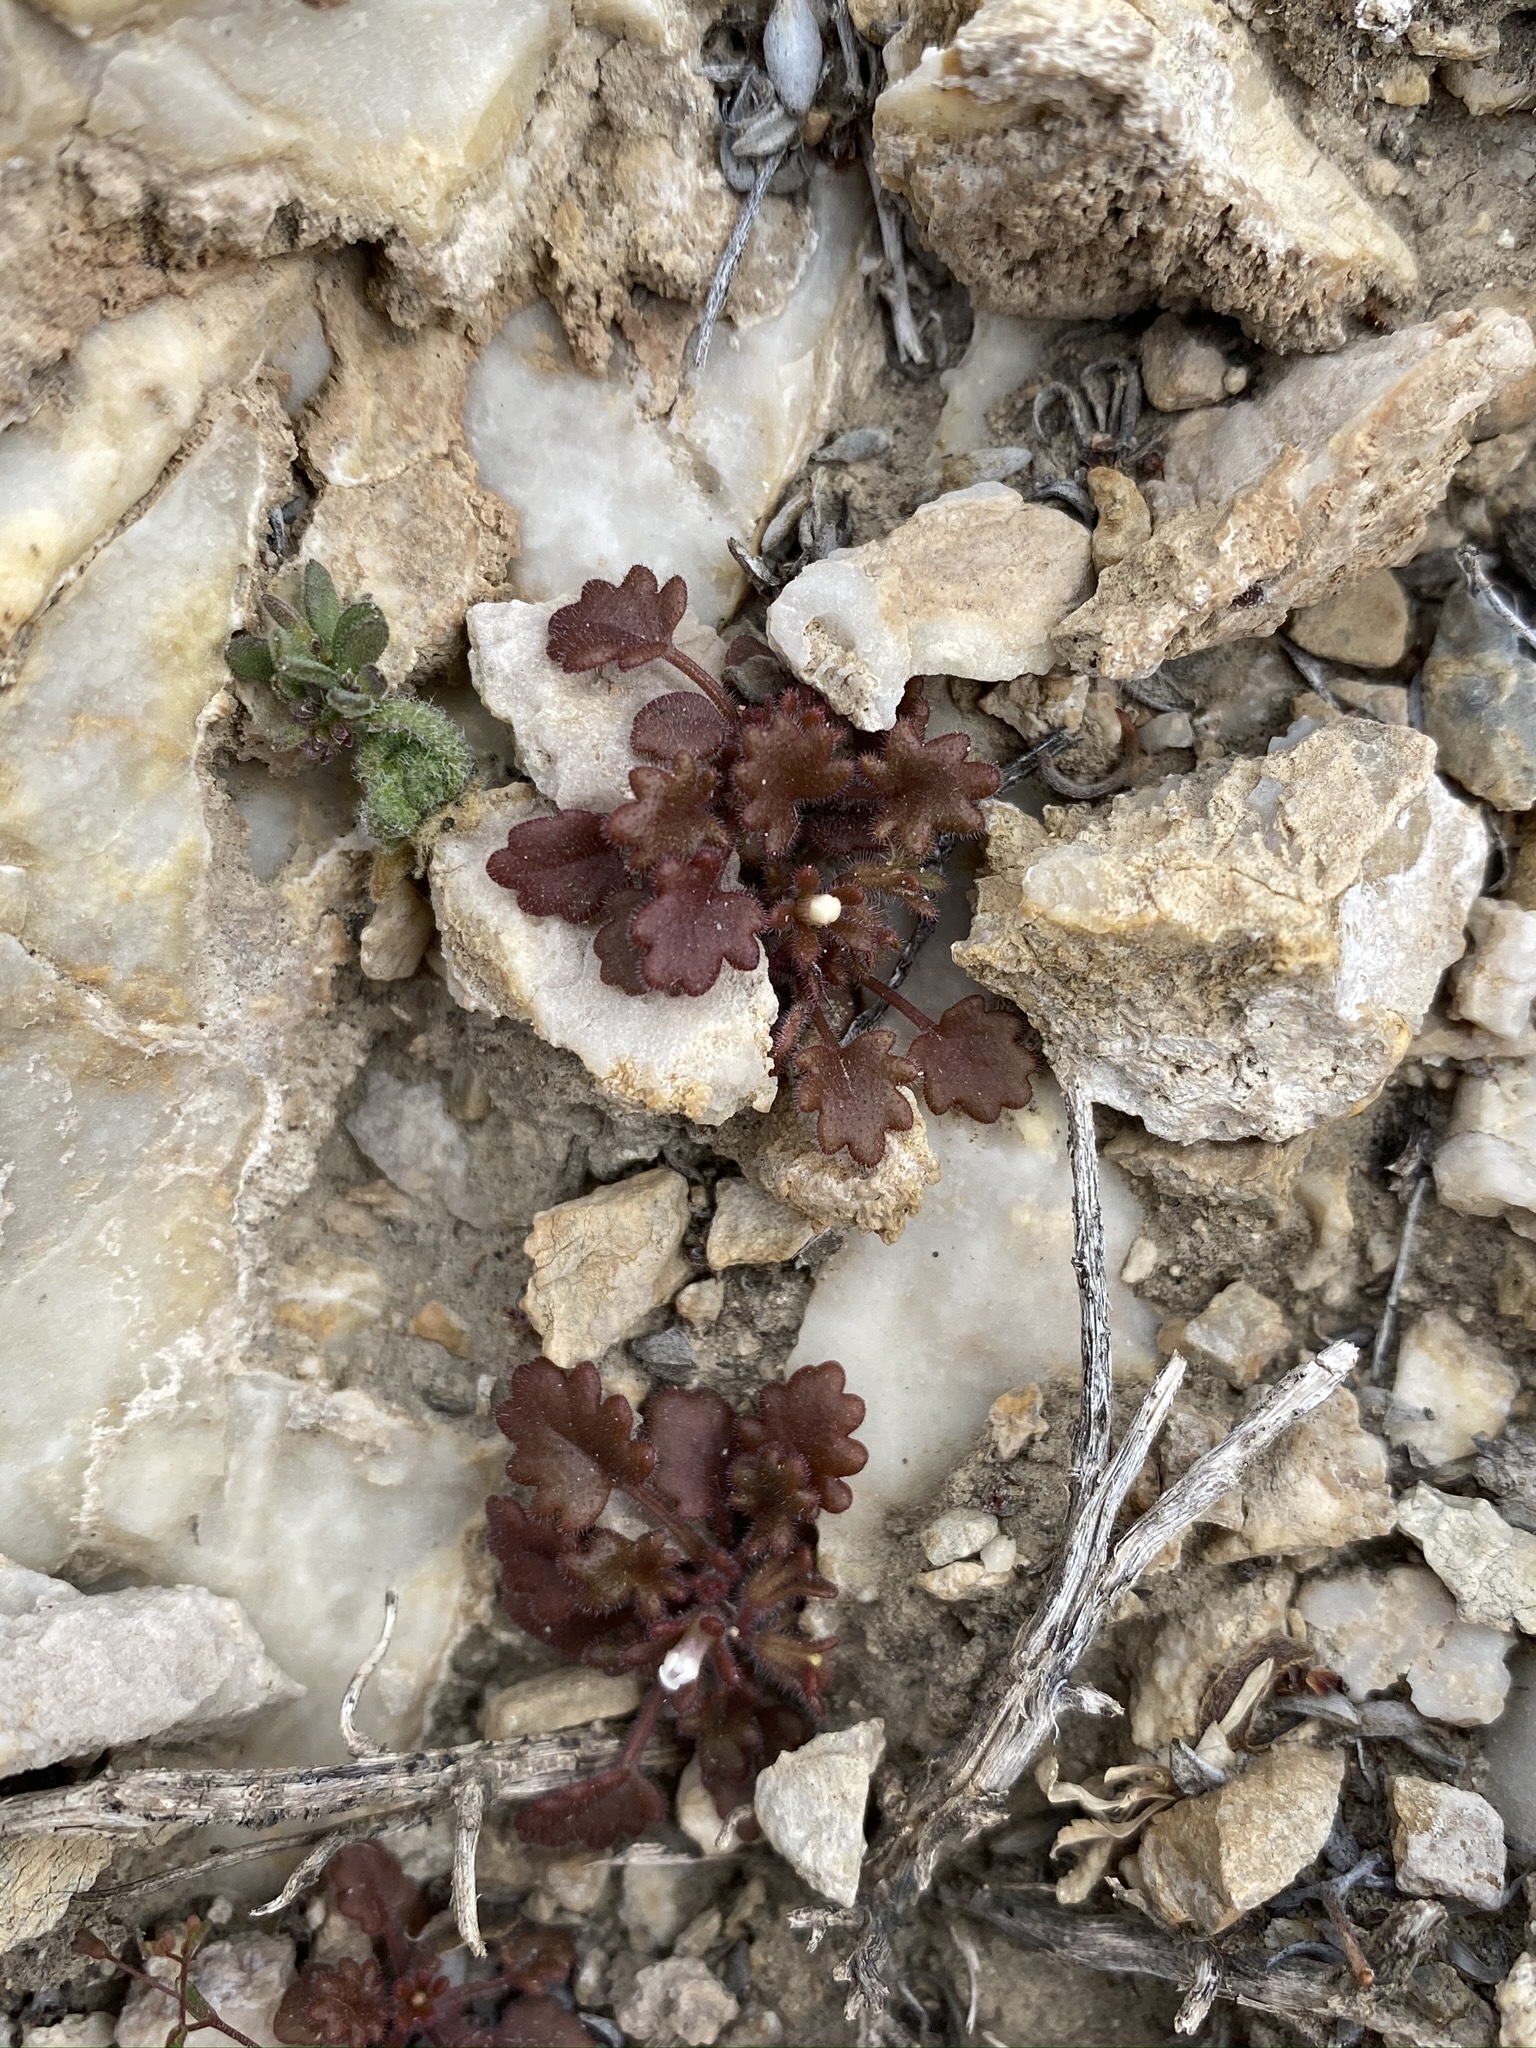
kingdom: Plantae
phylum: Tracheophyta
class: Magnoliopsida
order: Boraginales
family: Hydrophyllaceae
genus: Phacelia
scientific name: Phacelia rotundifolia
